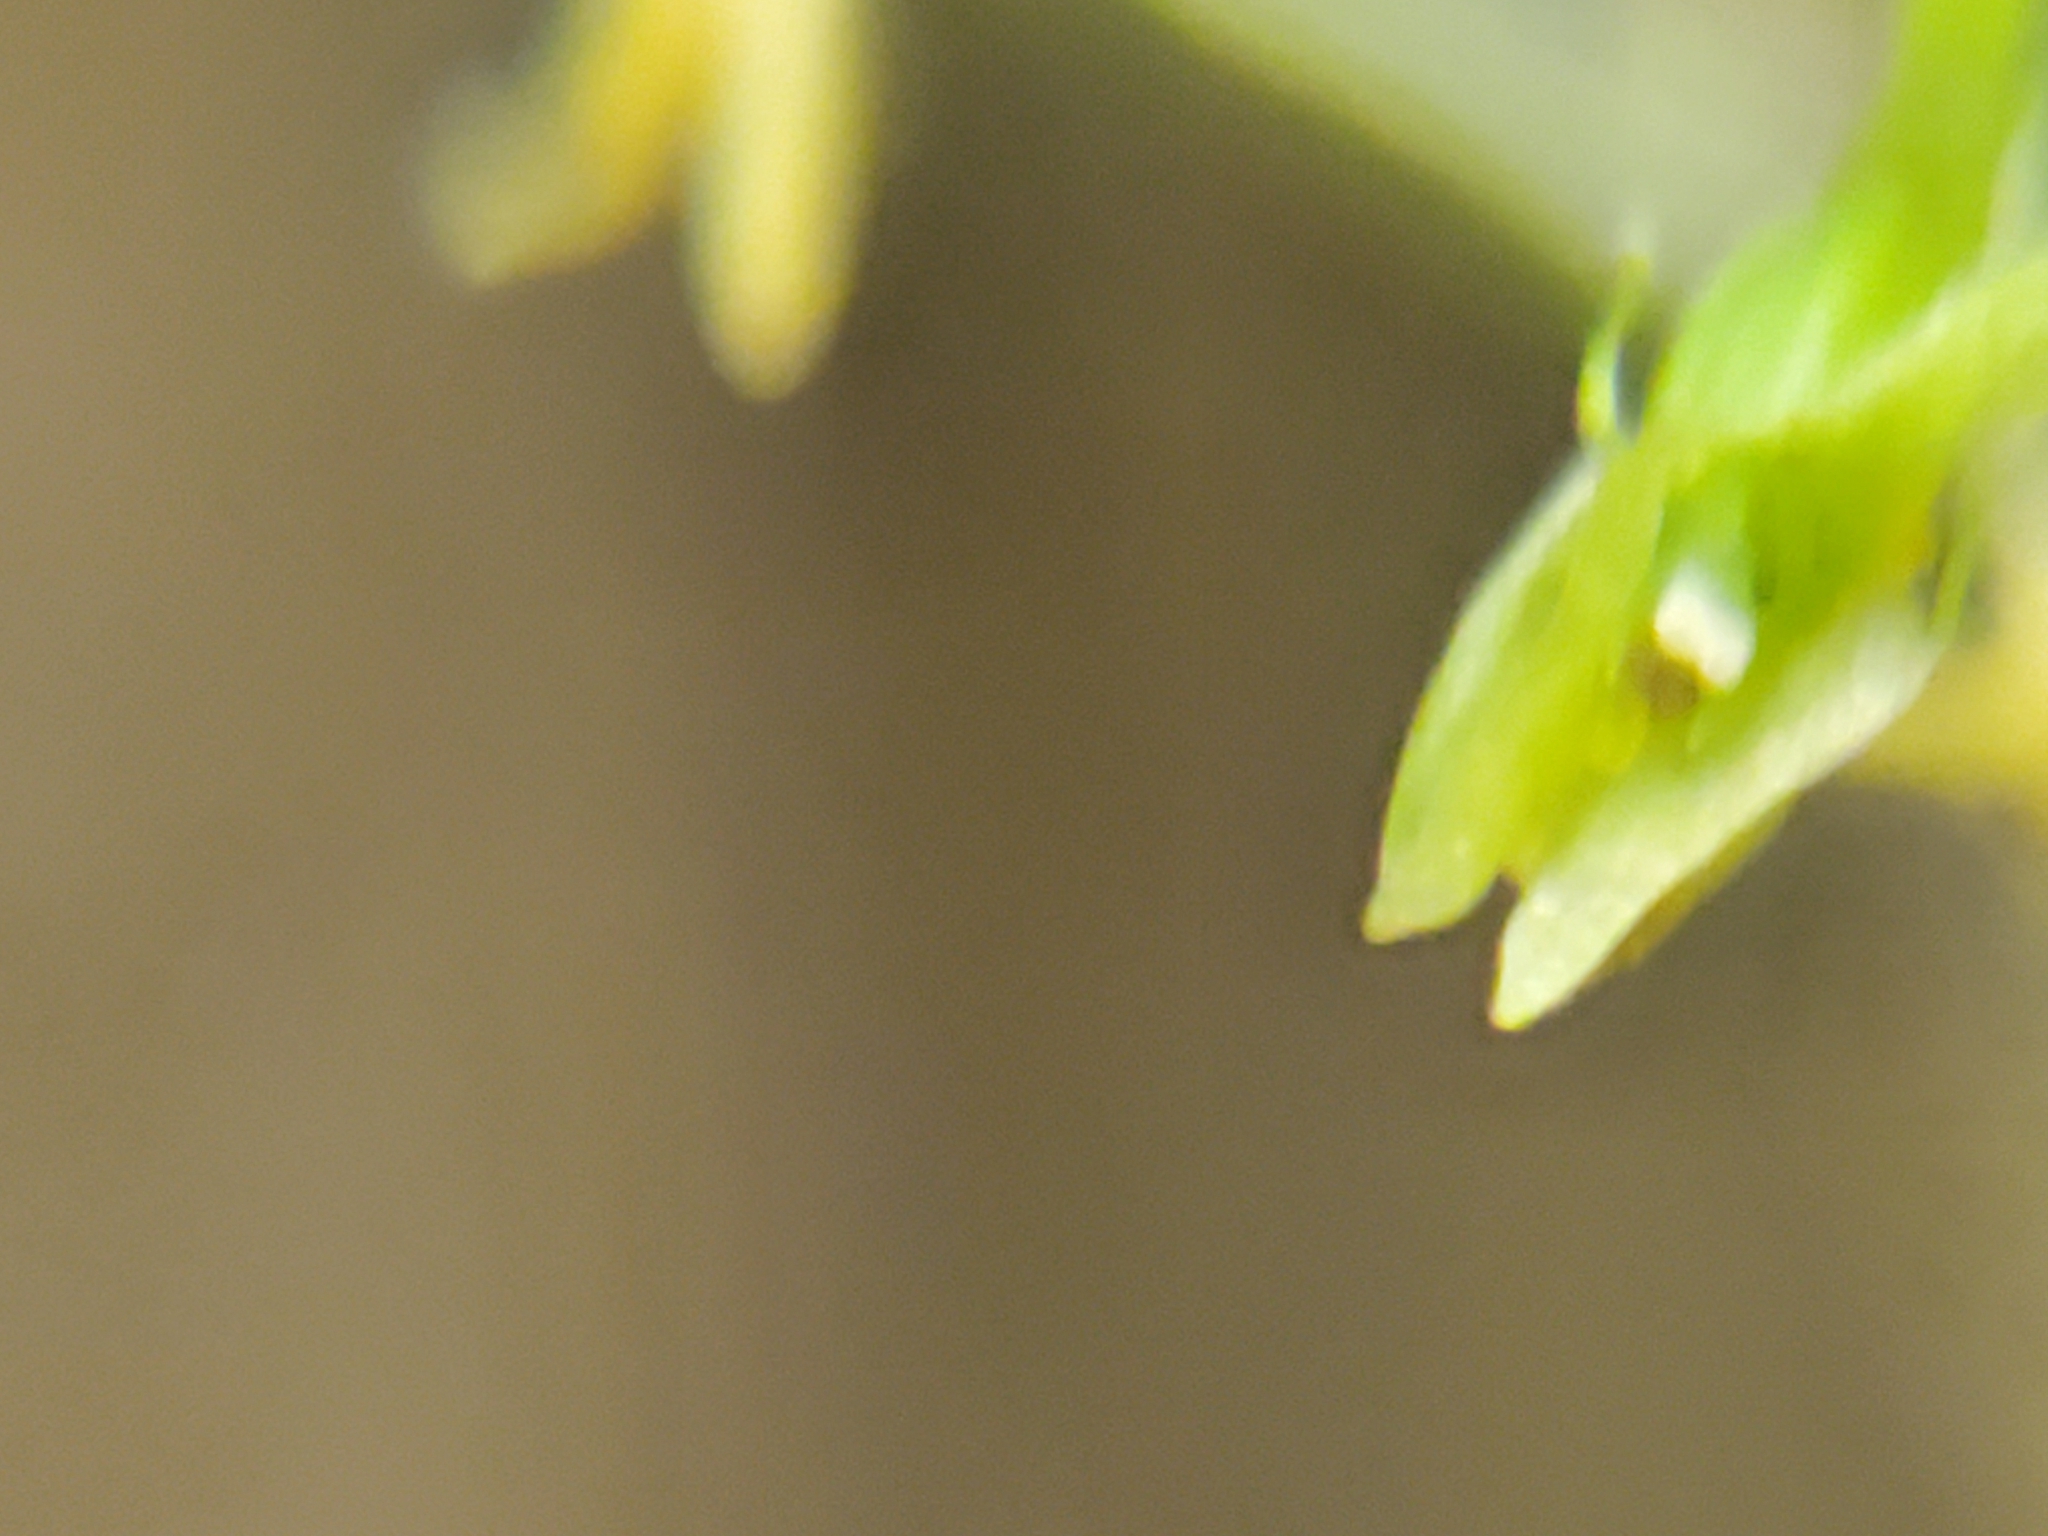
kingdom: Plantae
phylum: Tracheophyta
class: Liliopsida
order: Asparagales
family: Orchidaceae
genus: Malaxis
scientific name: Malaxis unifolia
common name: Green adder's-mouth
